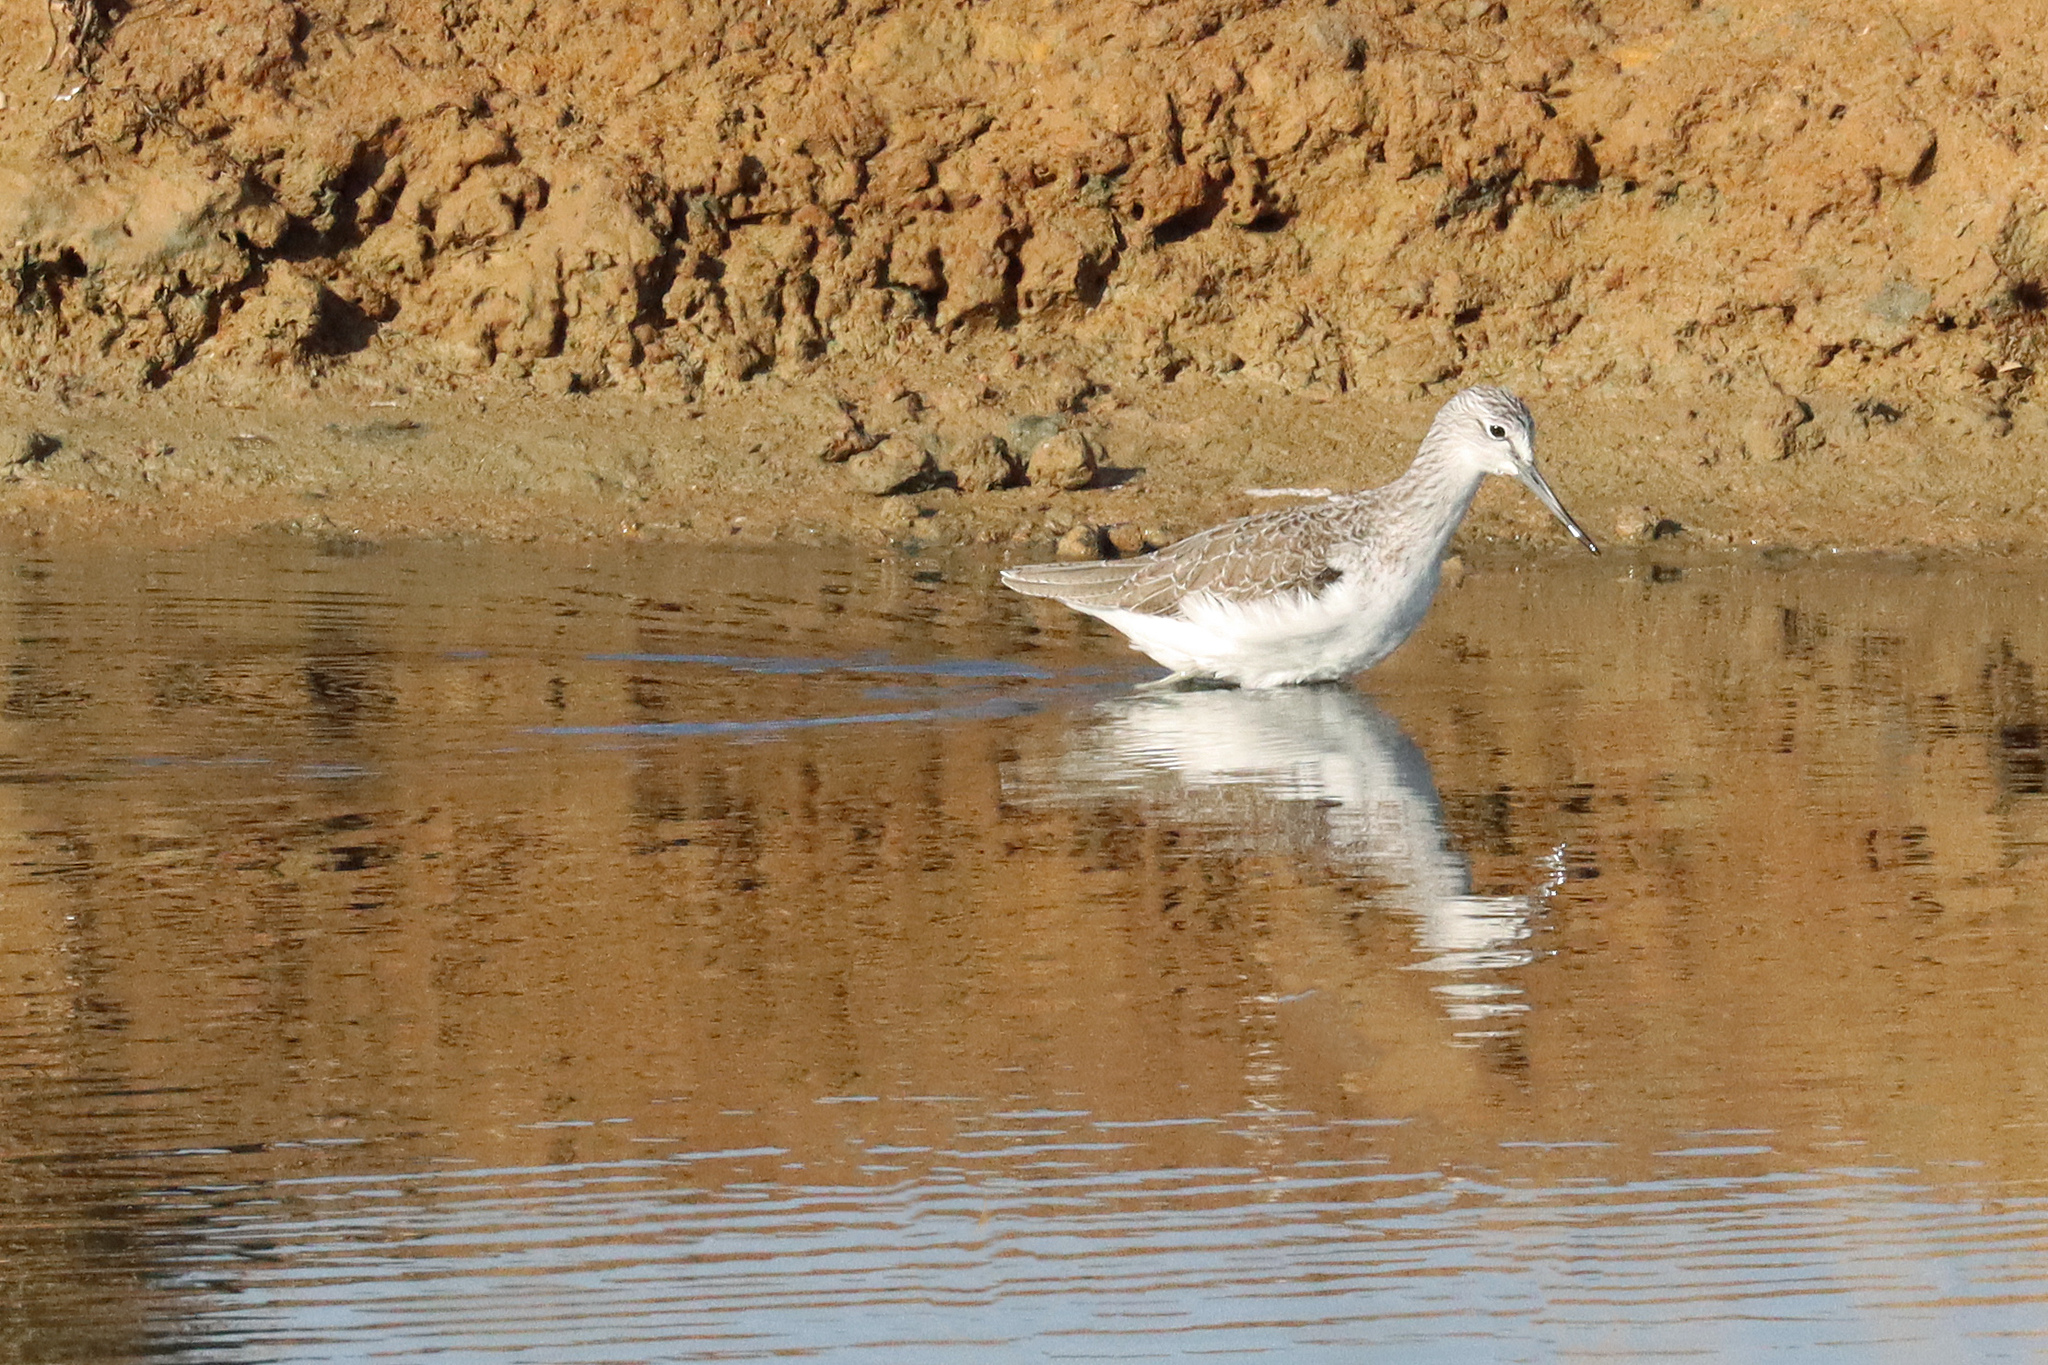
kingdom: Animalia
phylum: Chordata
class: Aves
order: Charadriiformes
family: Scolopacidae
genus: Tringa
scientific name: Tringa nebularia
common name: Common greenshank
